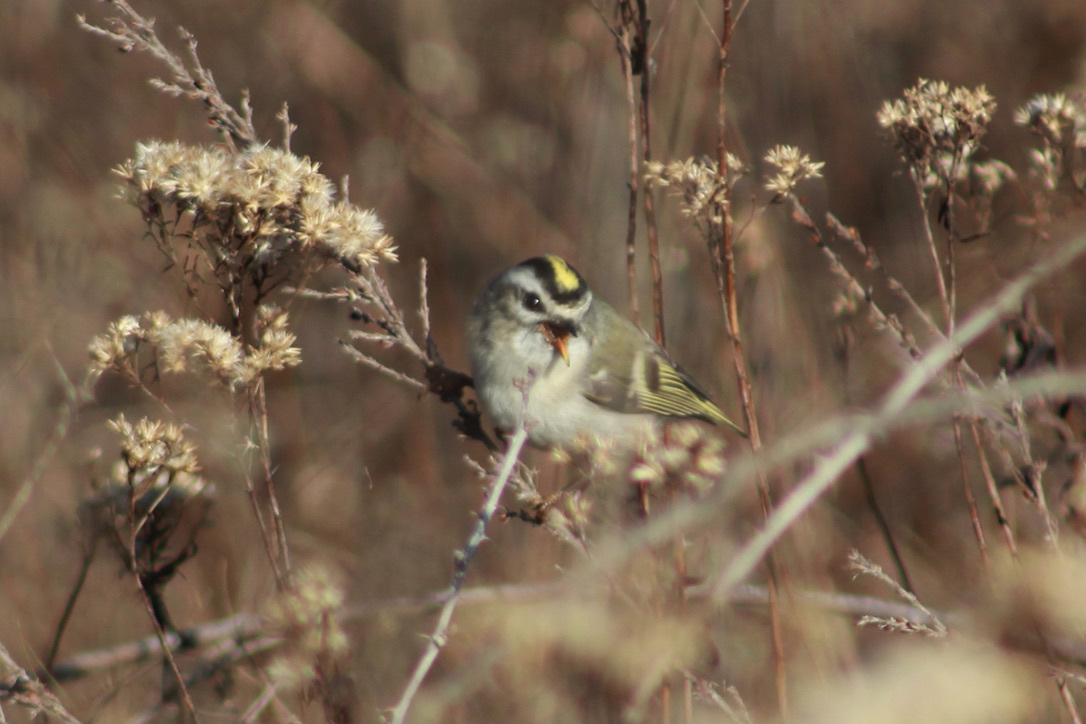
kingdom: Animalia
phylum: Chordata
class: Aves
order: Passeriformes
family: Regulidae
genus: Regulus
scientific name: Regulus satrapa
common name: Golden-crowned kinglet
